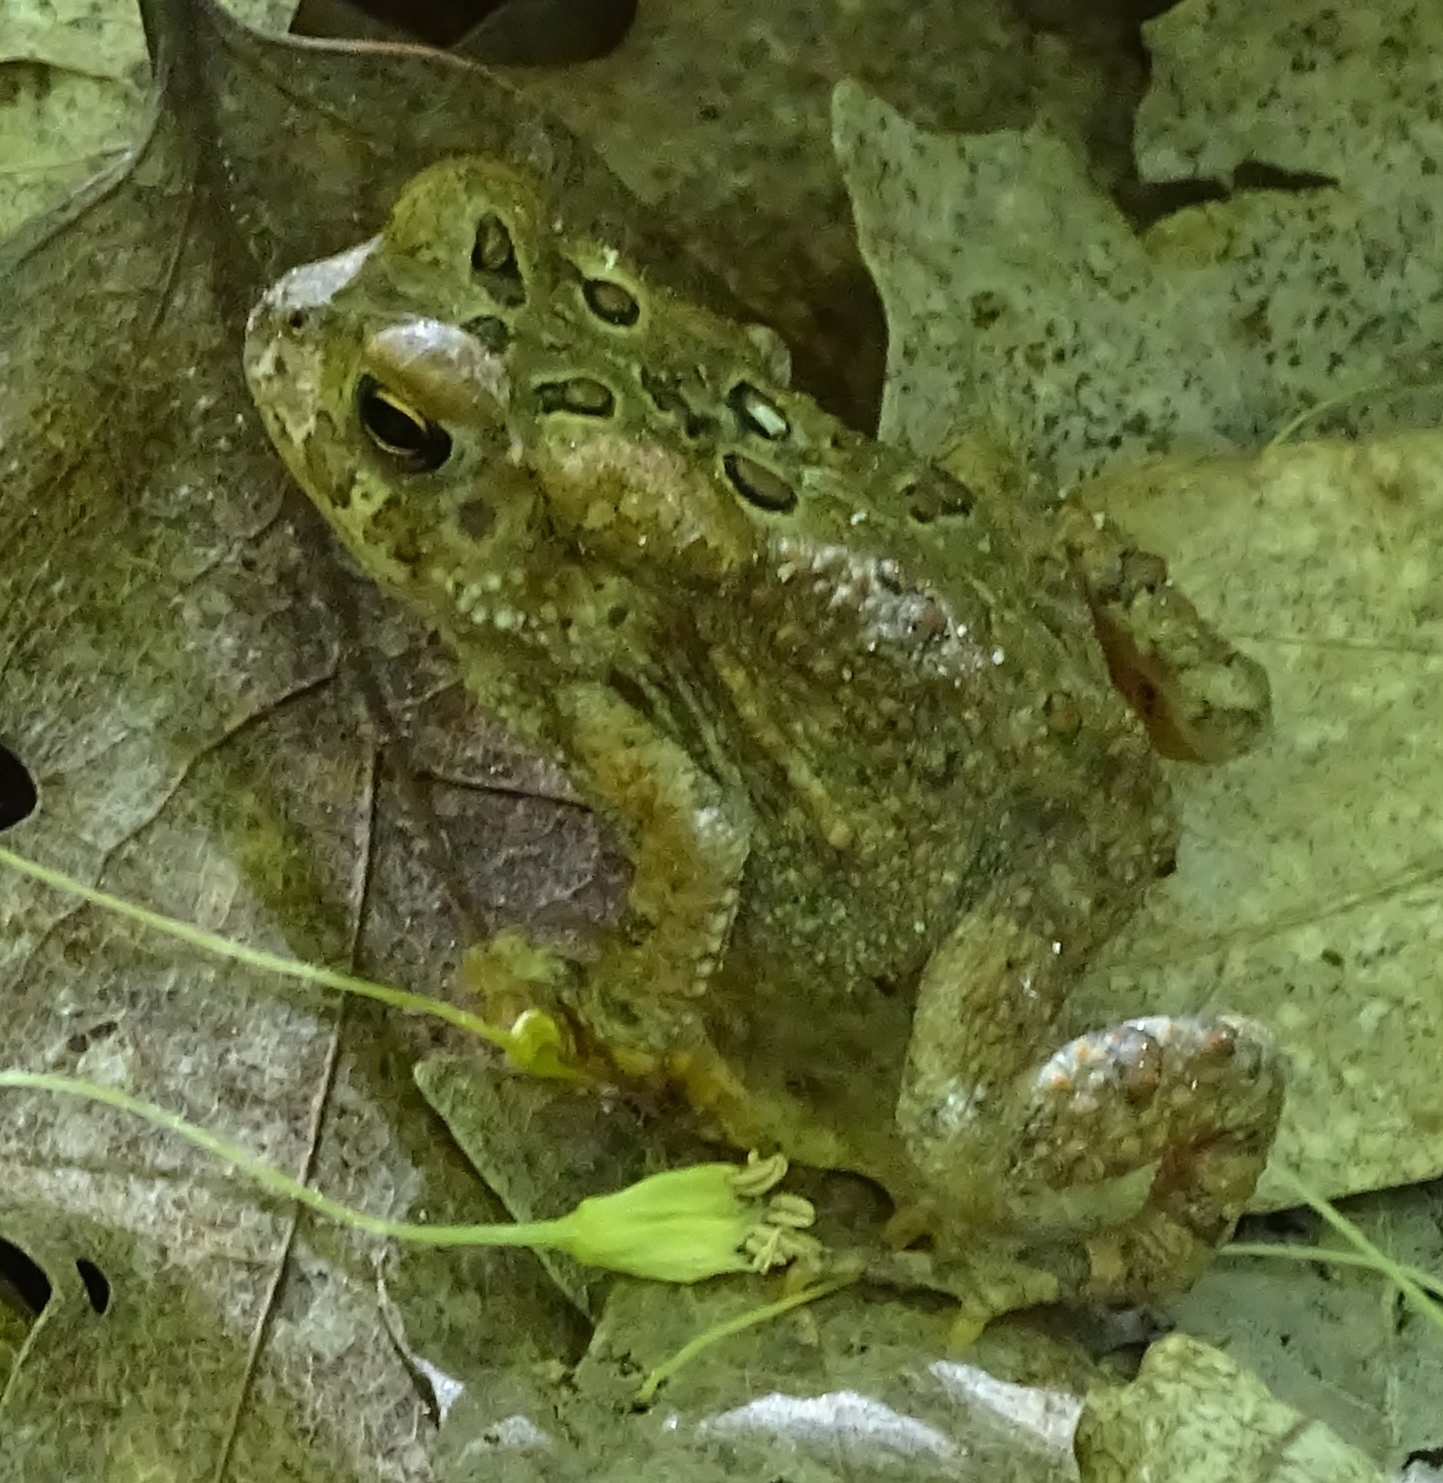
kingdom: Animalia
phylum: Chordata
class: Amphibia
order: Anura
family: Bufonidae
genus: Anaxyrus
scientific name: Anaxyrus americanus
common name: American toad
